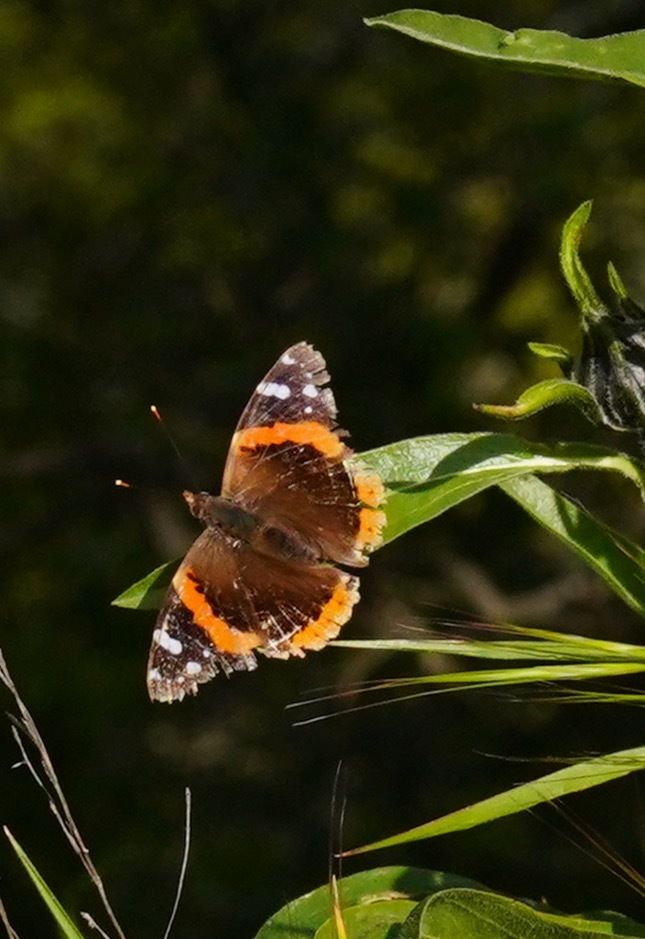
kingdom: Animalia
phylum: Arthropoda
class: Insecta
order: Lepidoptera
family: Nymphalidae
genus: Vanessa
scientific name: Vanessa atalanta
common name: Red admiral
